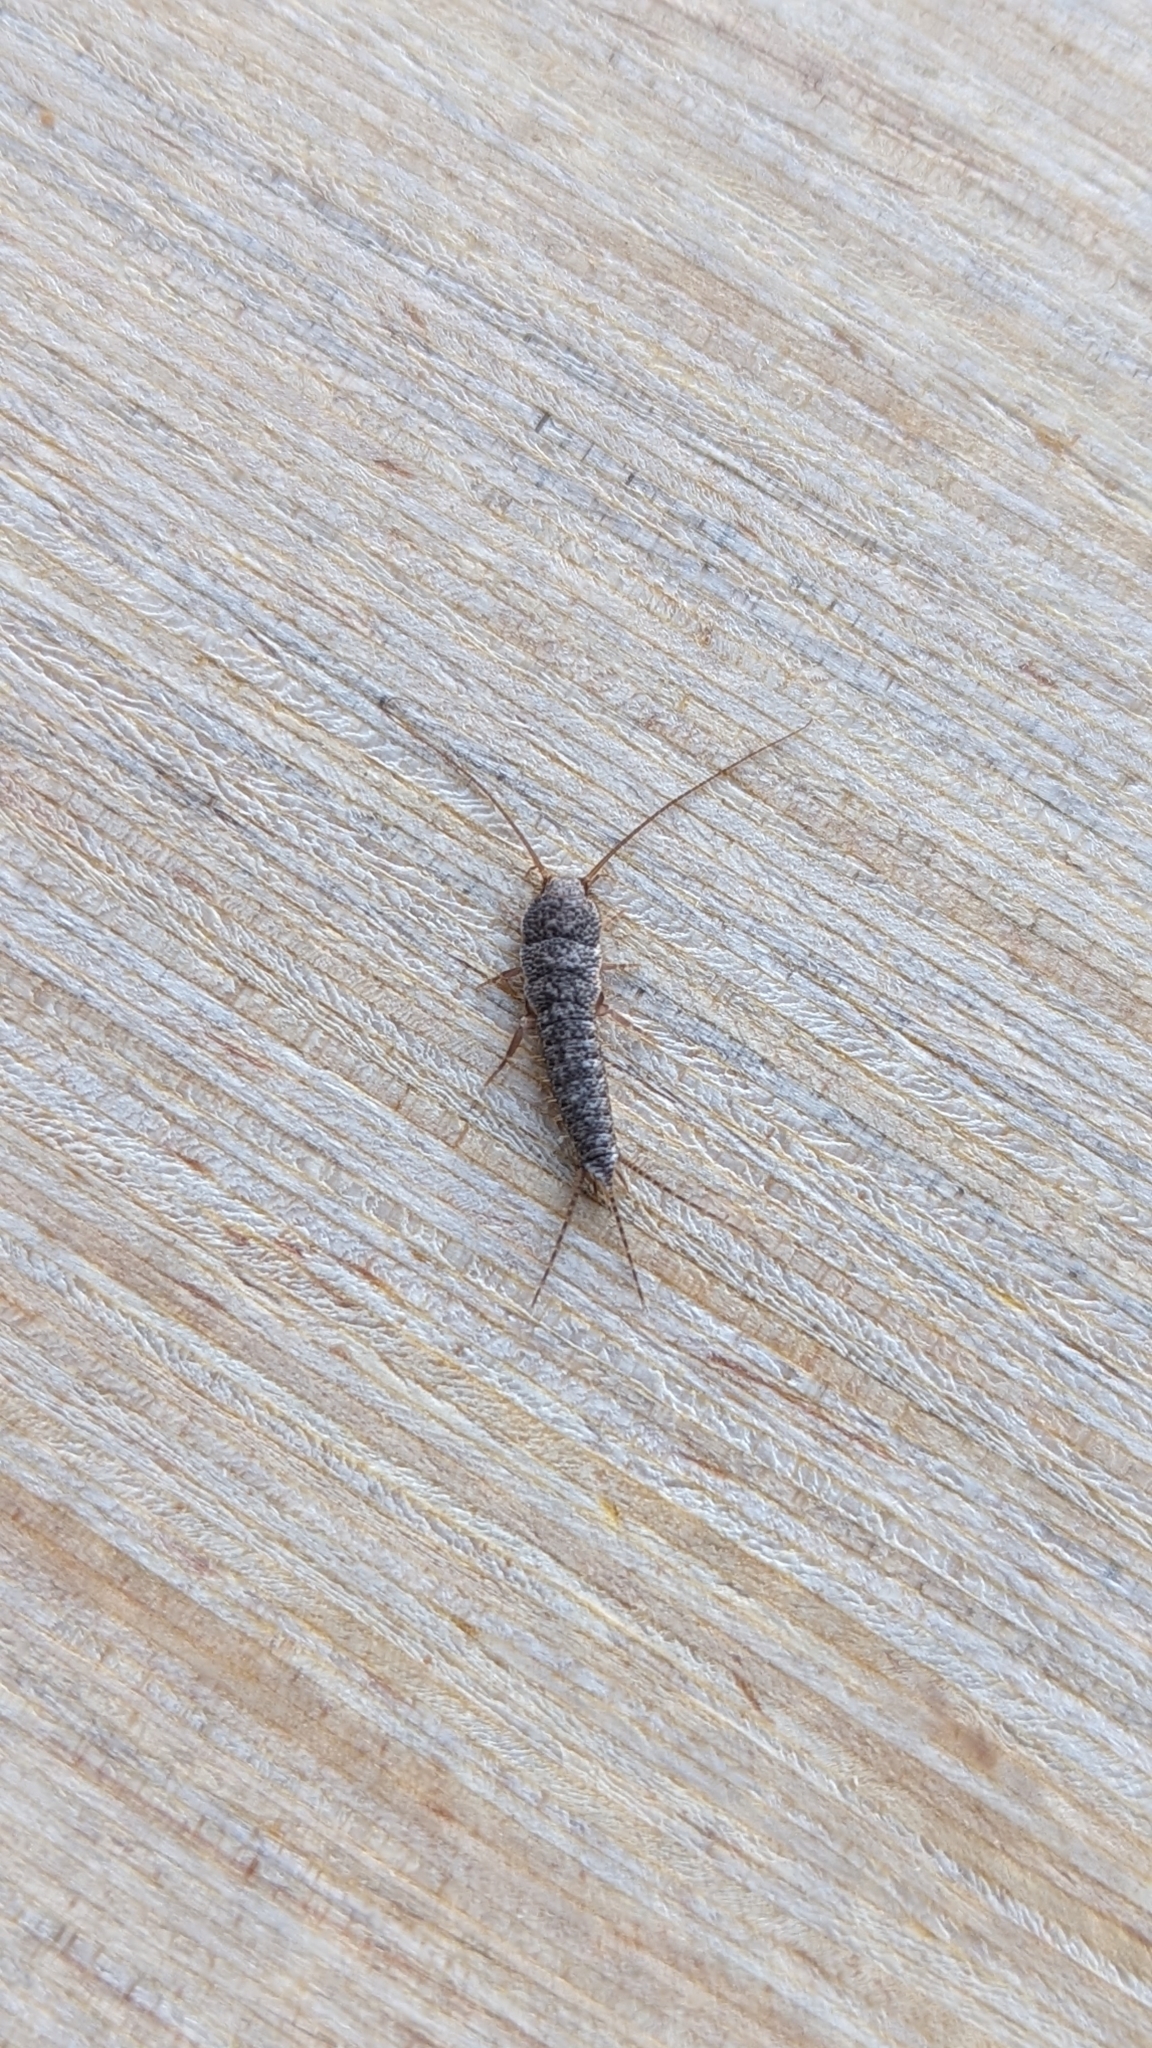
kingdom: Animalia
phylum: Arthropoda
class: Insecta
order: Zygentoma
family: Lepismatidae
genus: Allacrotelsa
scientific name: Allacrotelsa spinulata
